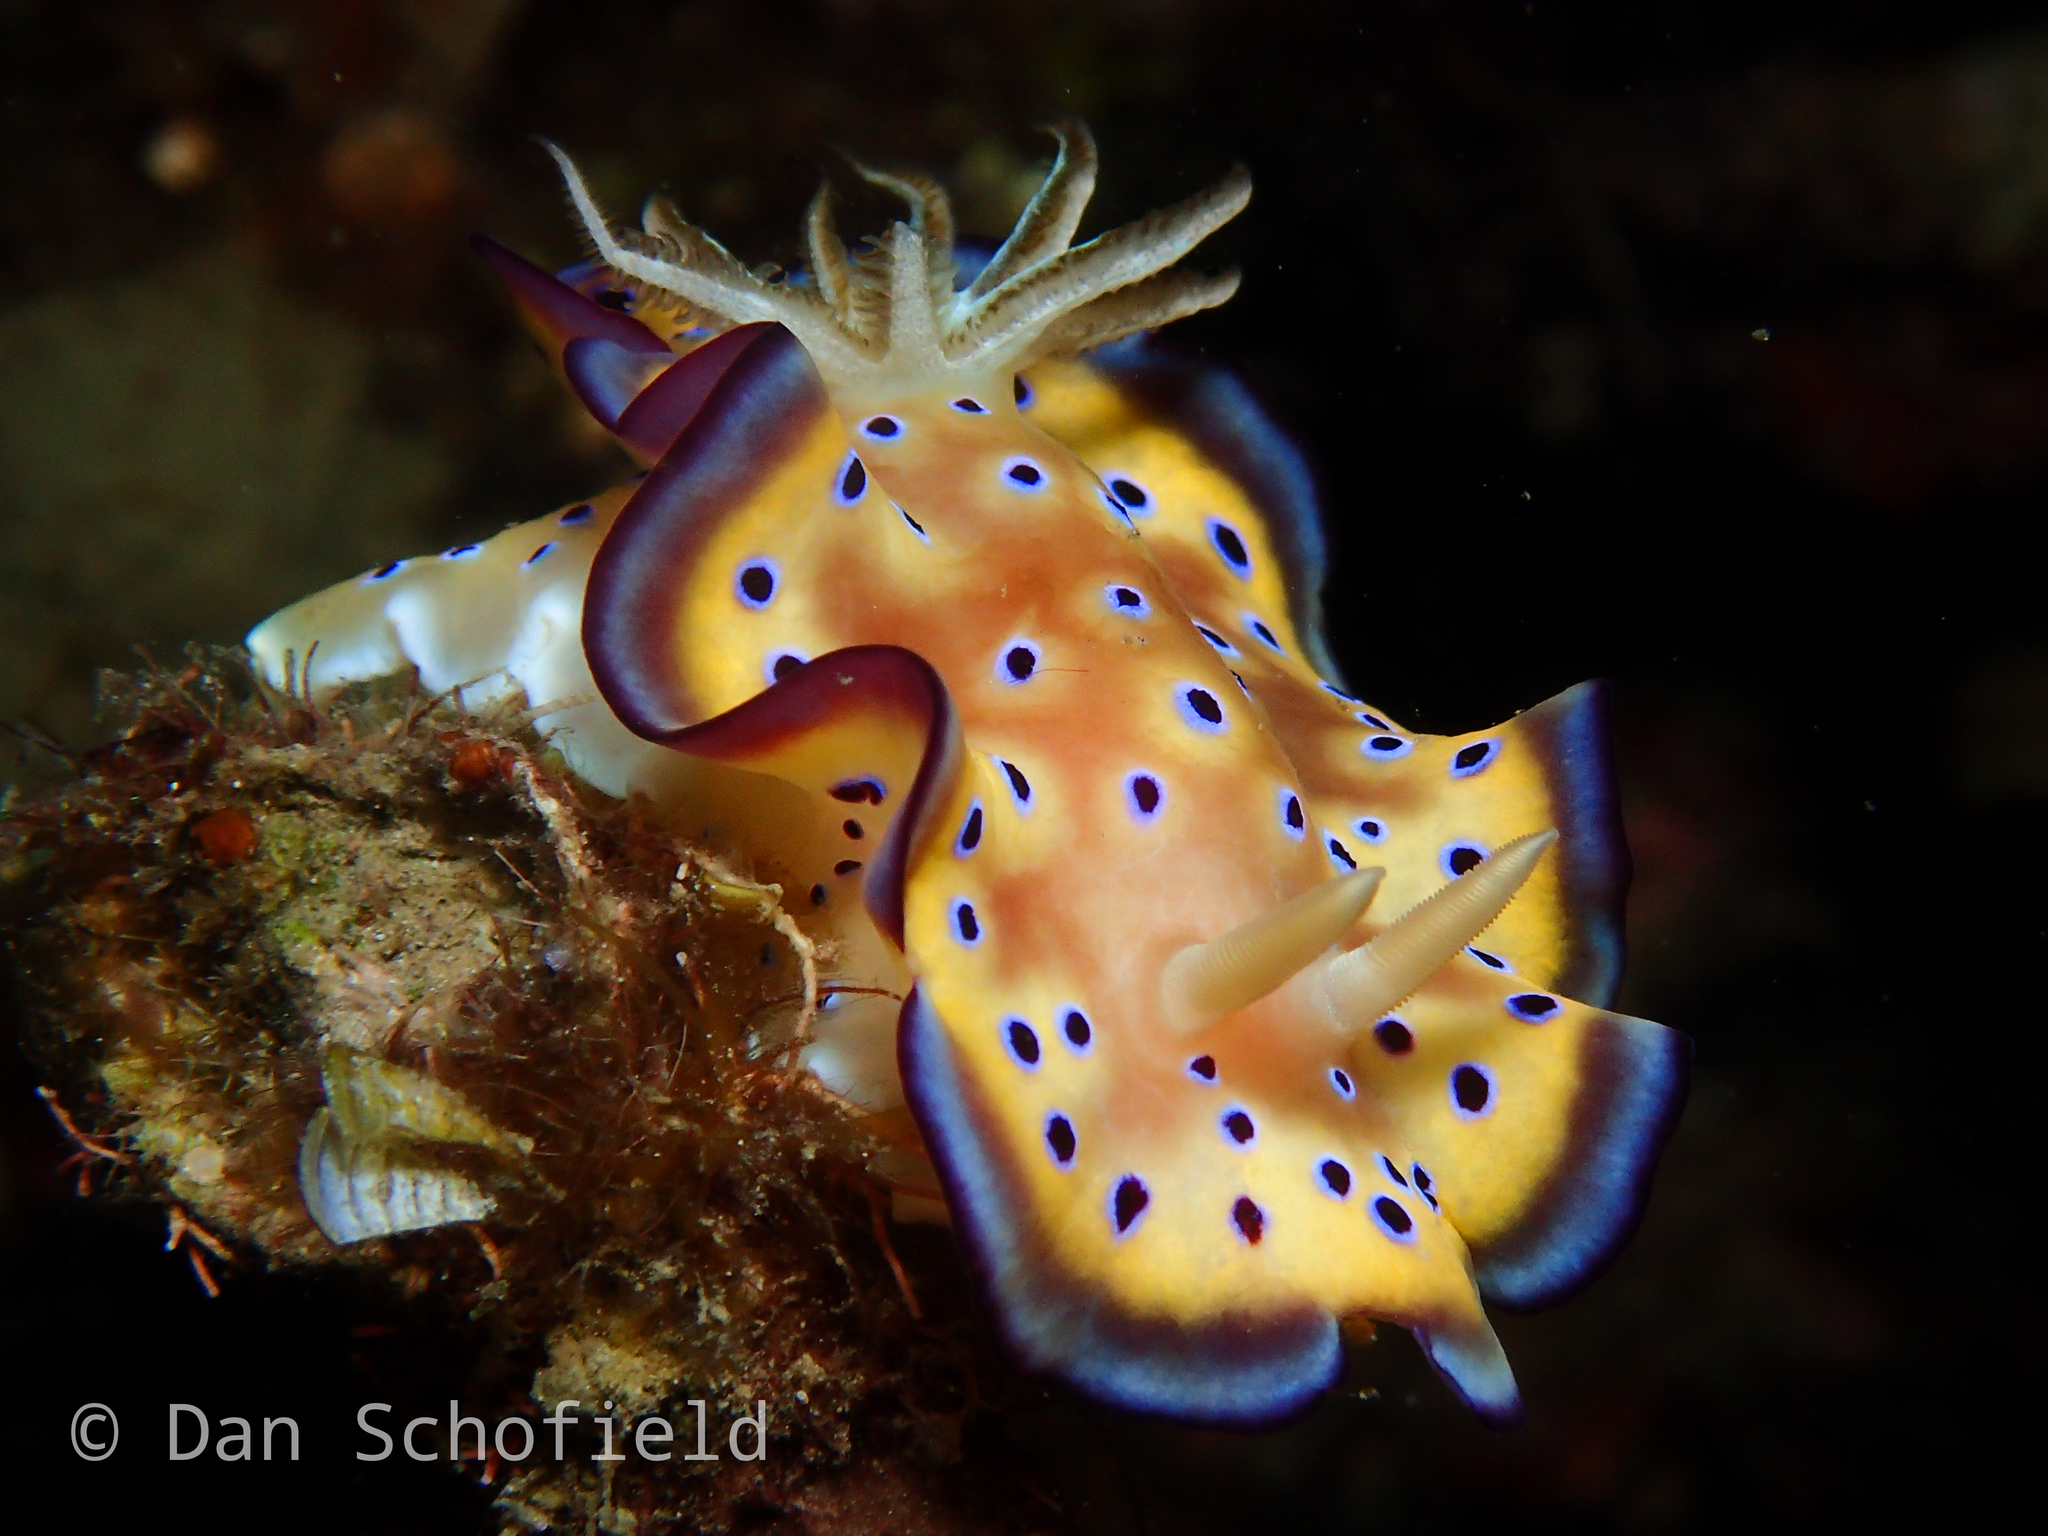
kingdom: Animalia
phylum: Mollusca
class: Gastropoda
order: Nudibranchia
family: Chromodorididae
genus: Goniobranchus
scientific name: Goniobranchus kuniei
